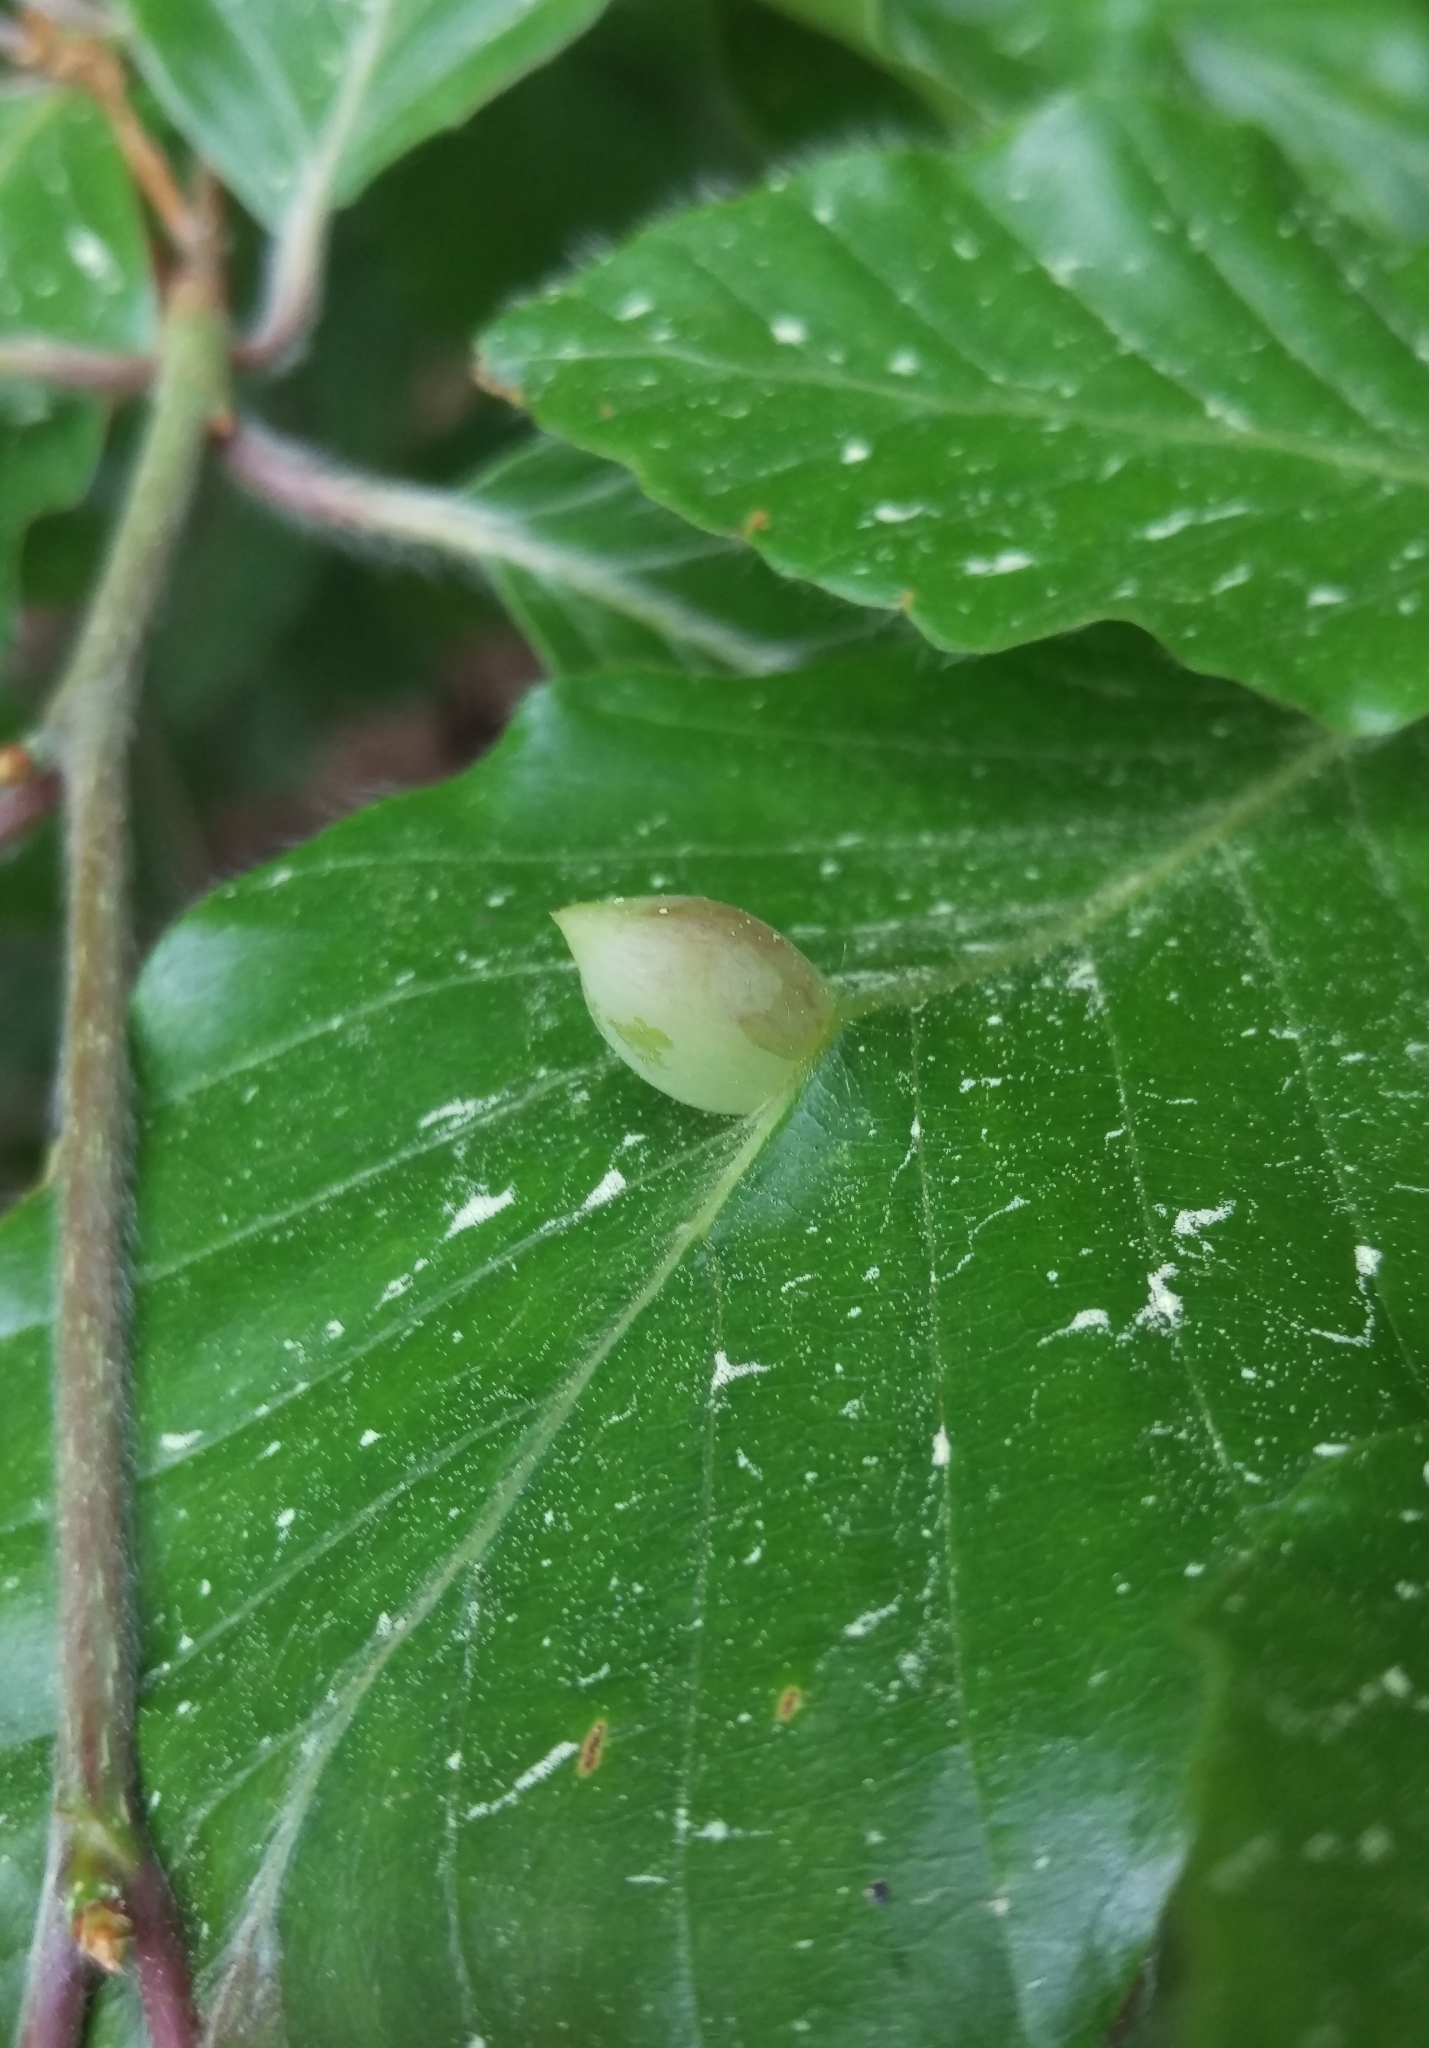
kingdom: Animalia
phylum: Arthropoda
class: Insecta
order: Diptera
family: Cecidomyiidae
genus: Mikiola
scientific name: Mikiola fagi
